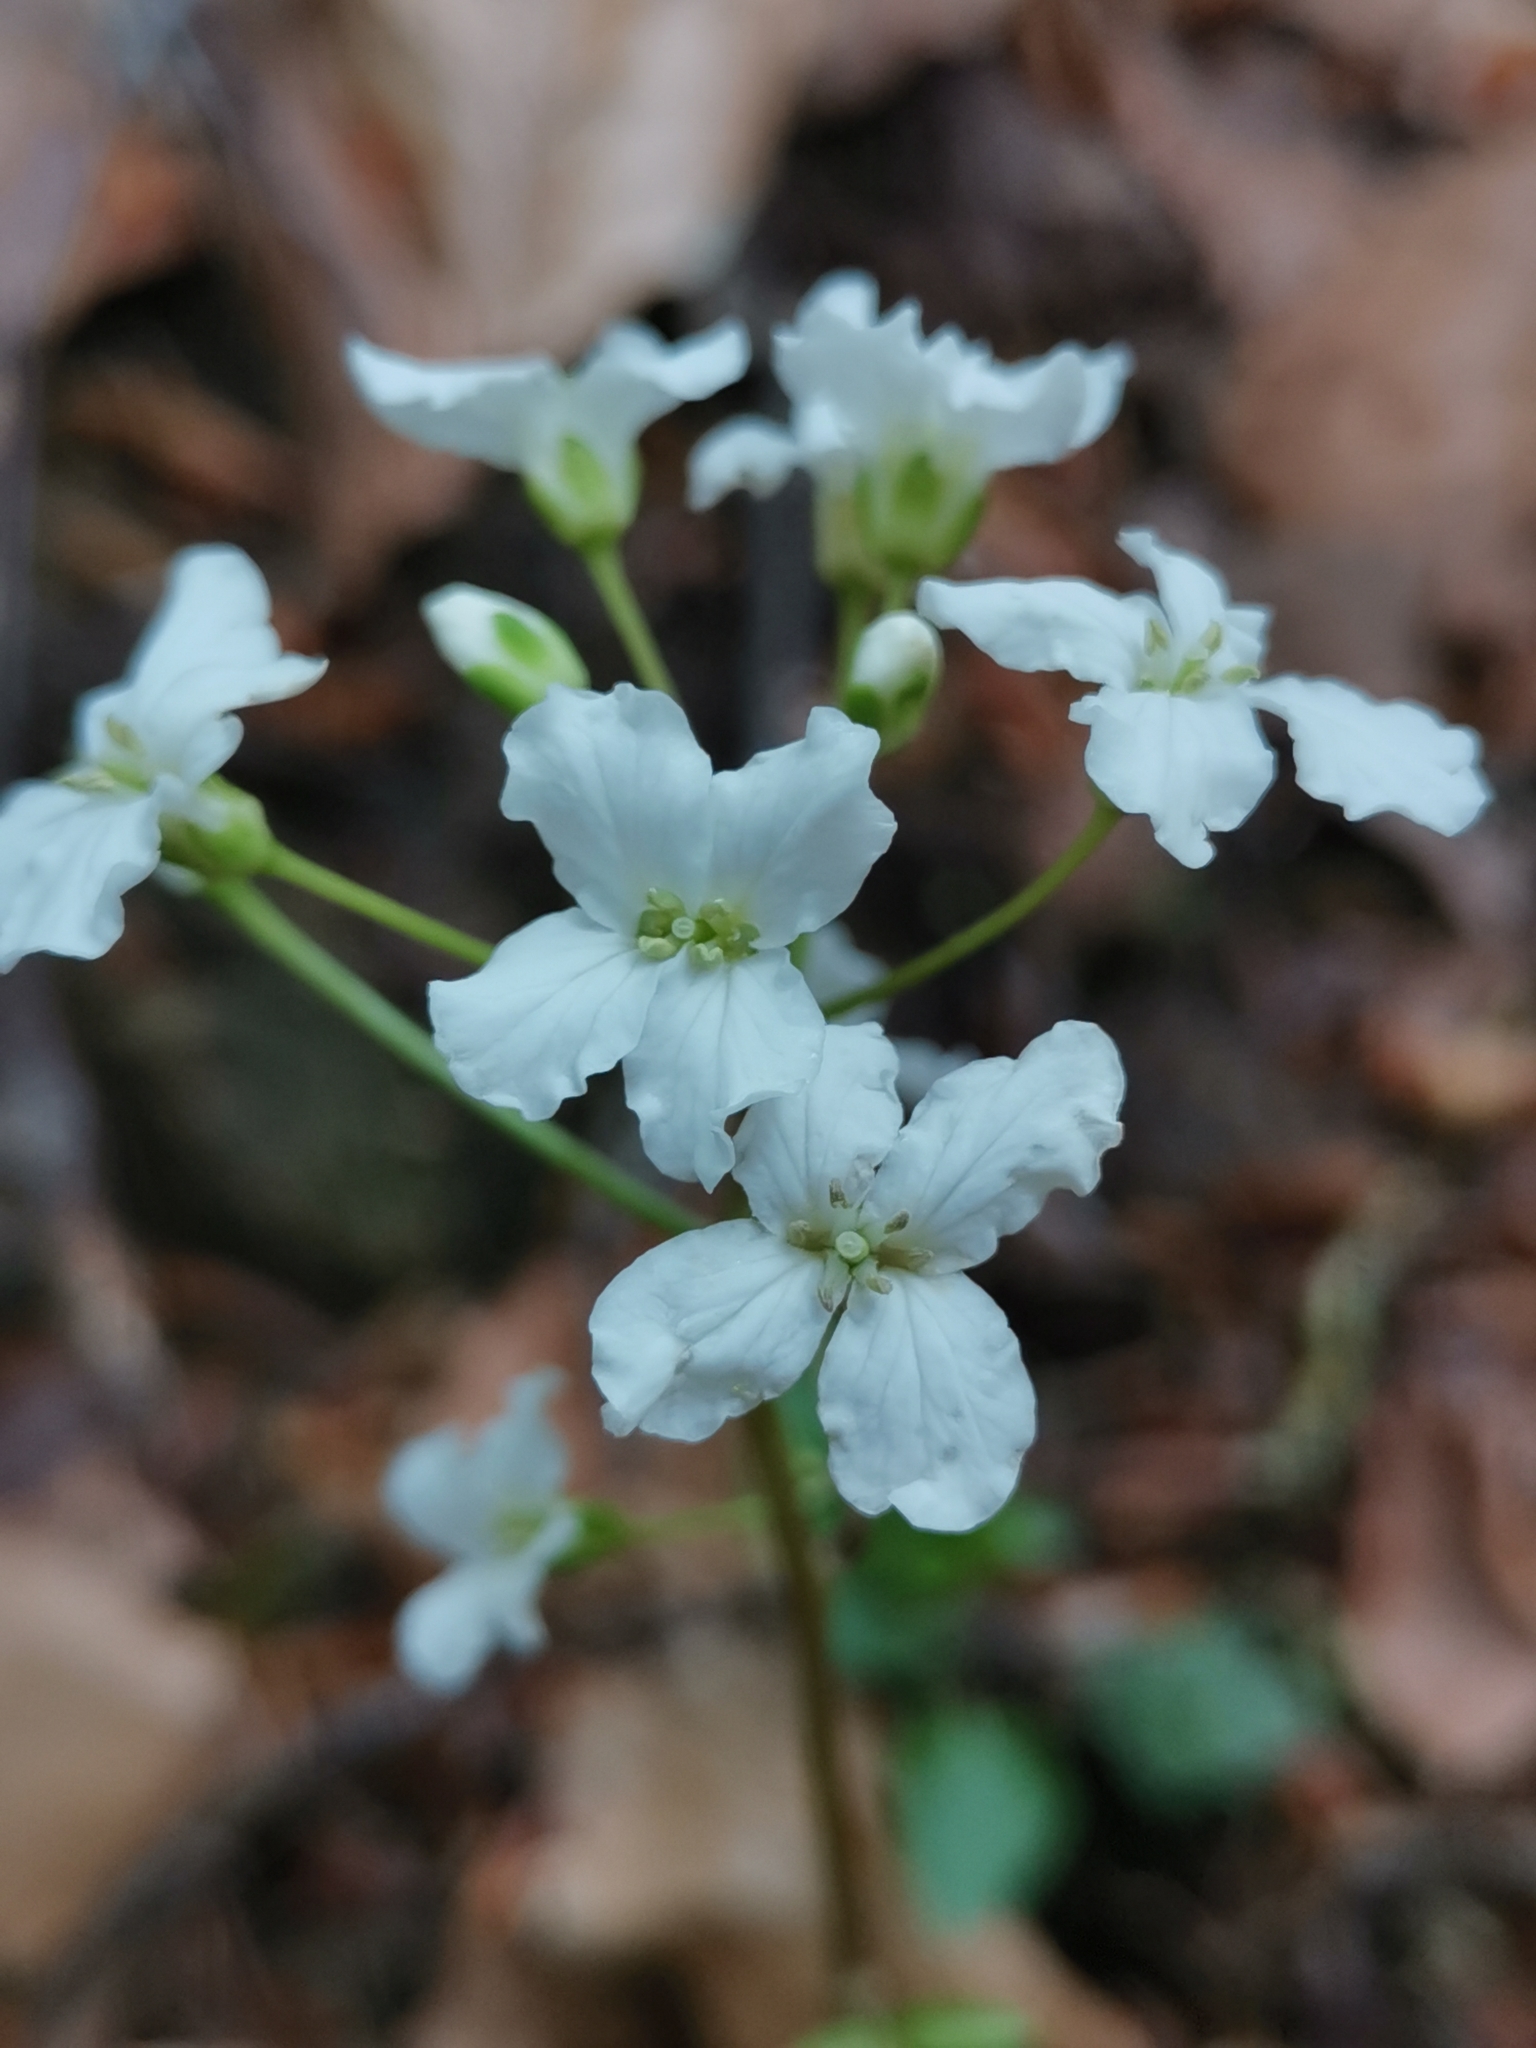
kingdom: Plantae
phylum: Tracheophyta
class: Magnoliopsida
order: Brassicales
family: Brassicaceae
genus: Cardamine
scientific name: Cardamine trifolia
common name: Trefoil cress
